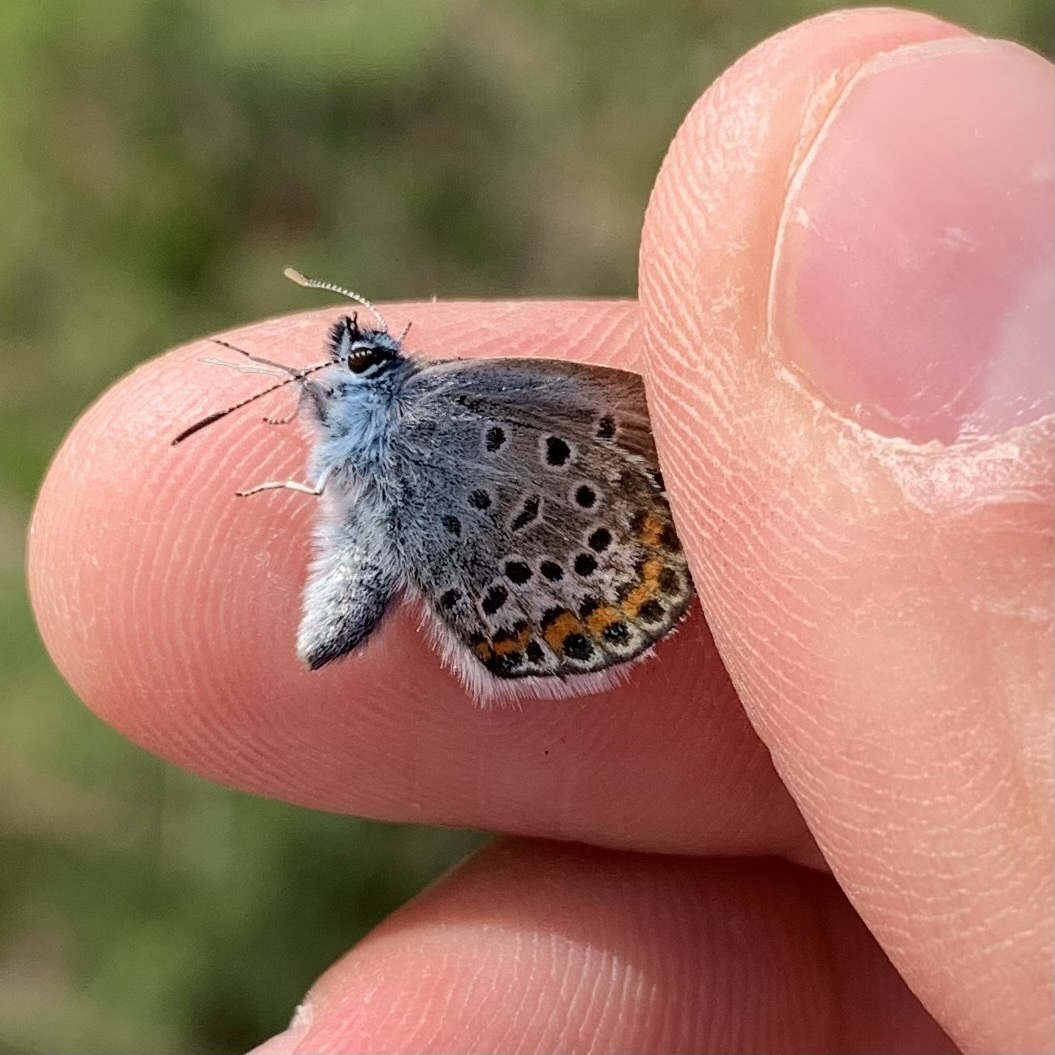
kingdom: Animalia
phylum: Arthropoda
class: Insecta
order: Lepidoptera
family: Lycaenidae
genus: Plebejus
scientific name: Plebejus argus
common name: Silver-studded blue
